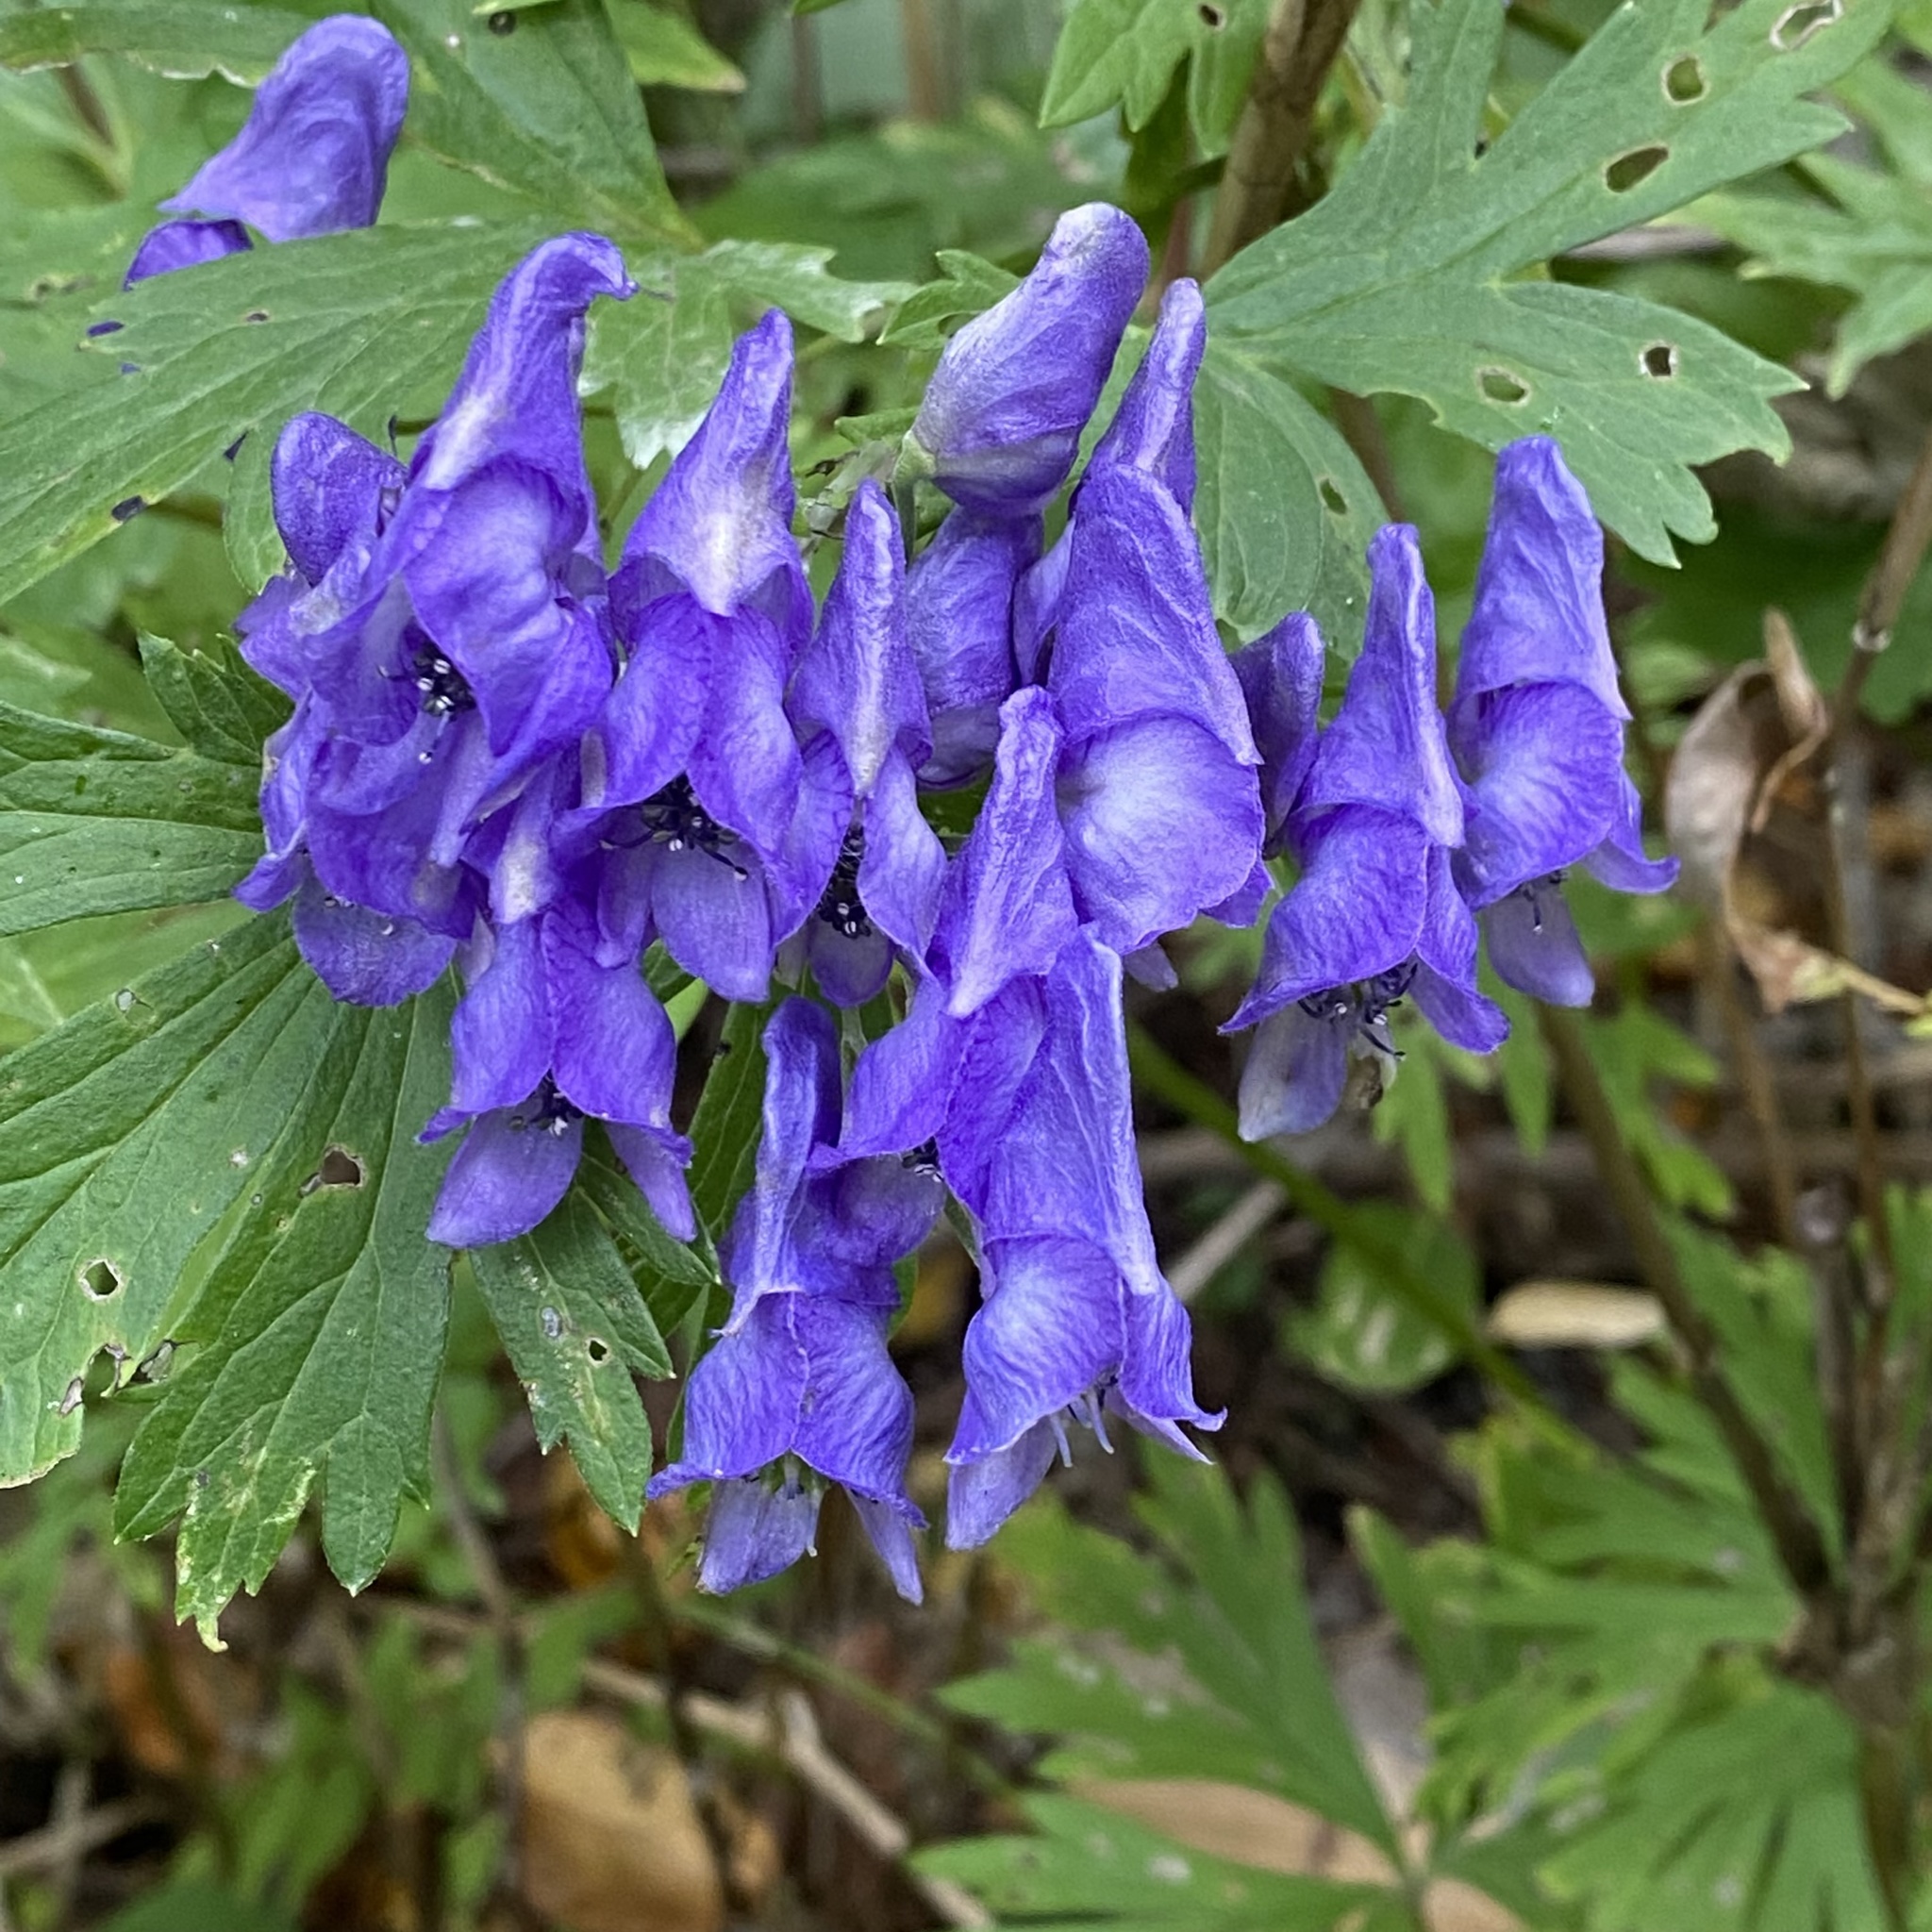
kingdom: Plantae
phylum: Tracheophyta
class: Magnoliopsida
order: Ranunculales
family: Ranunculaceae
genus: Aconitum
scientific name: Aconitum sachalinense
